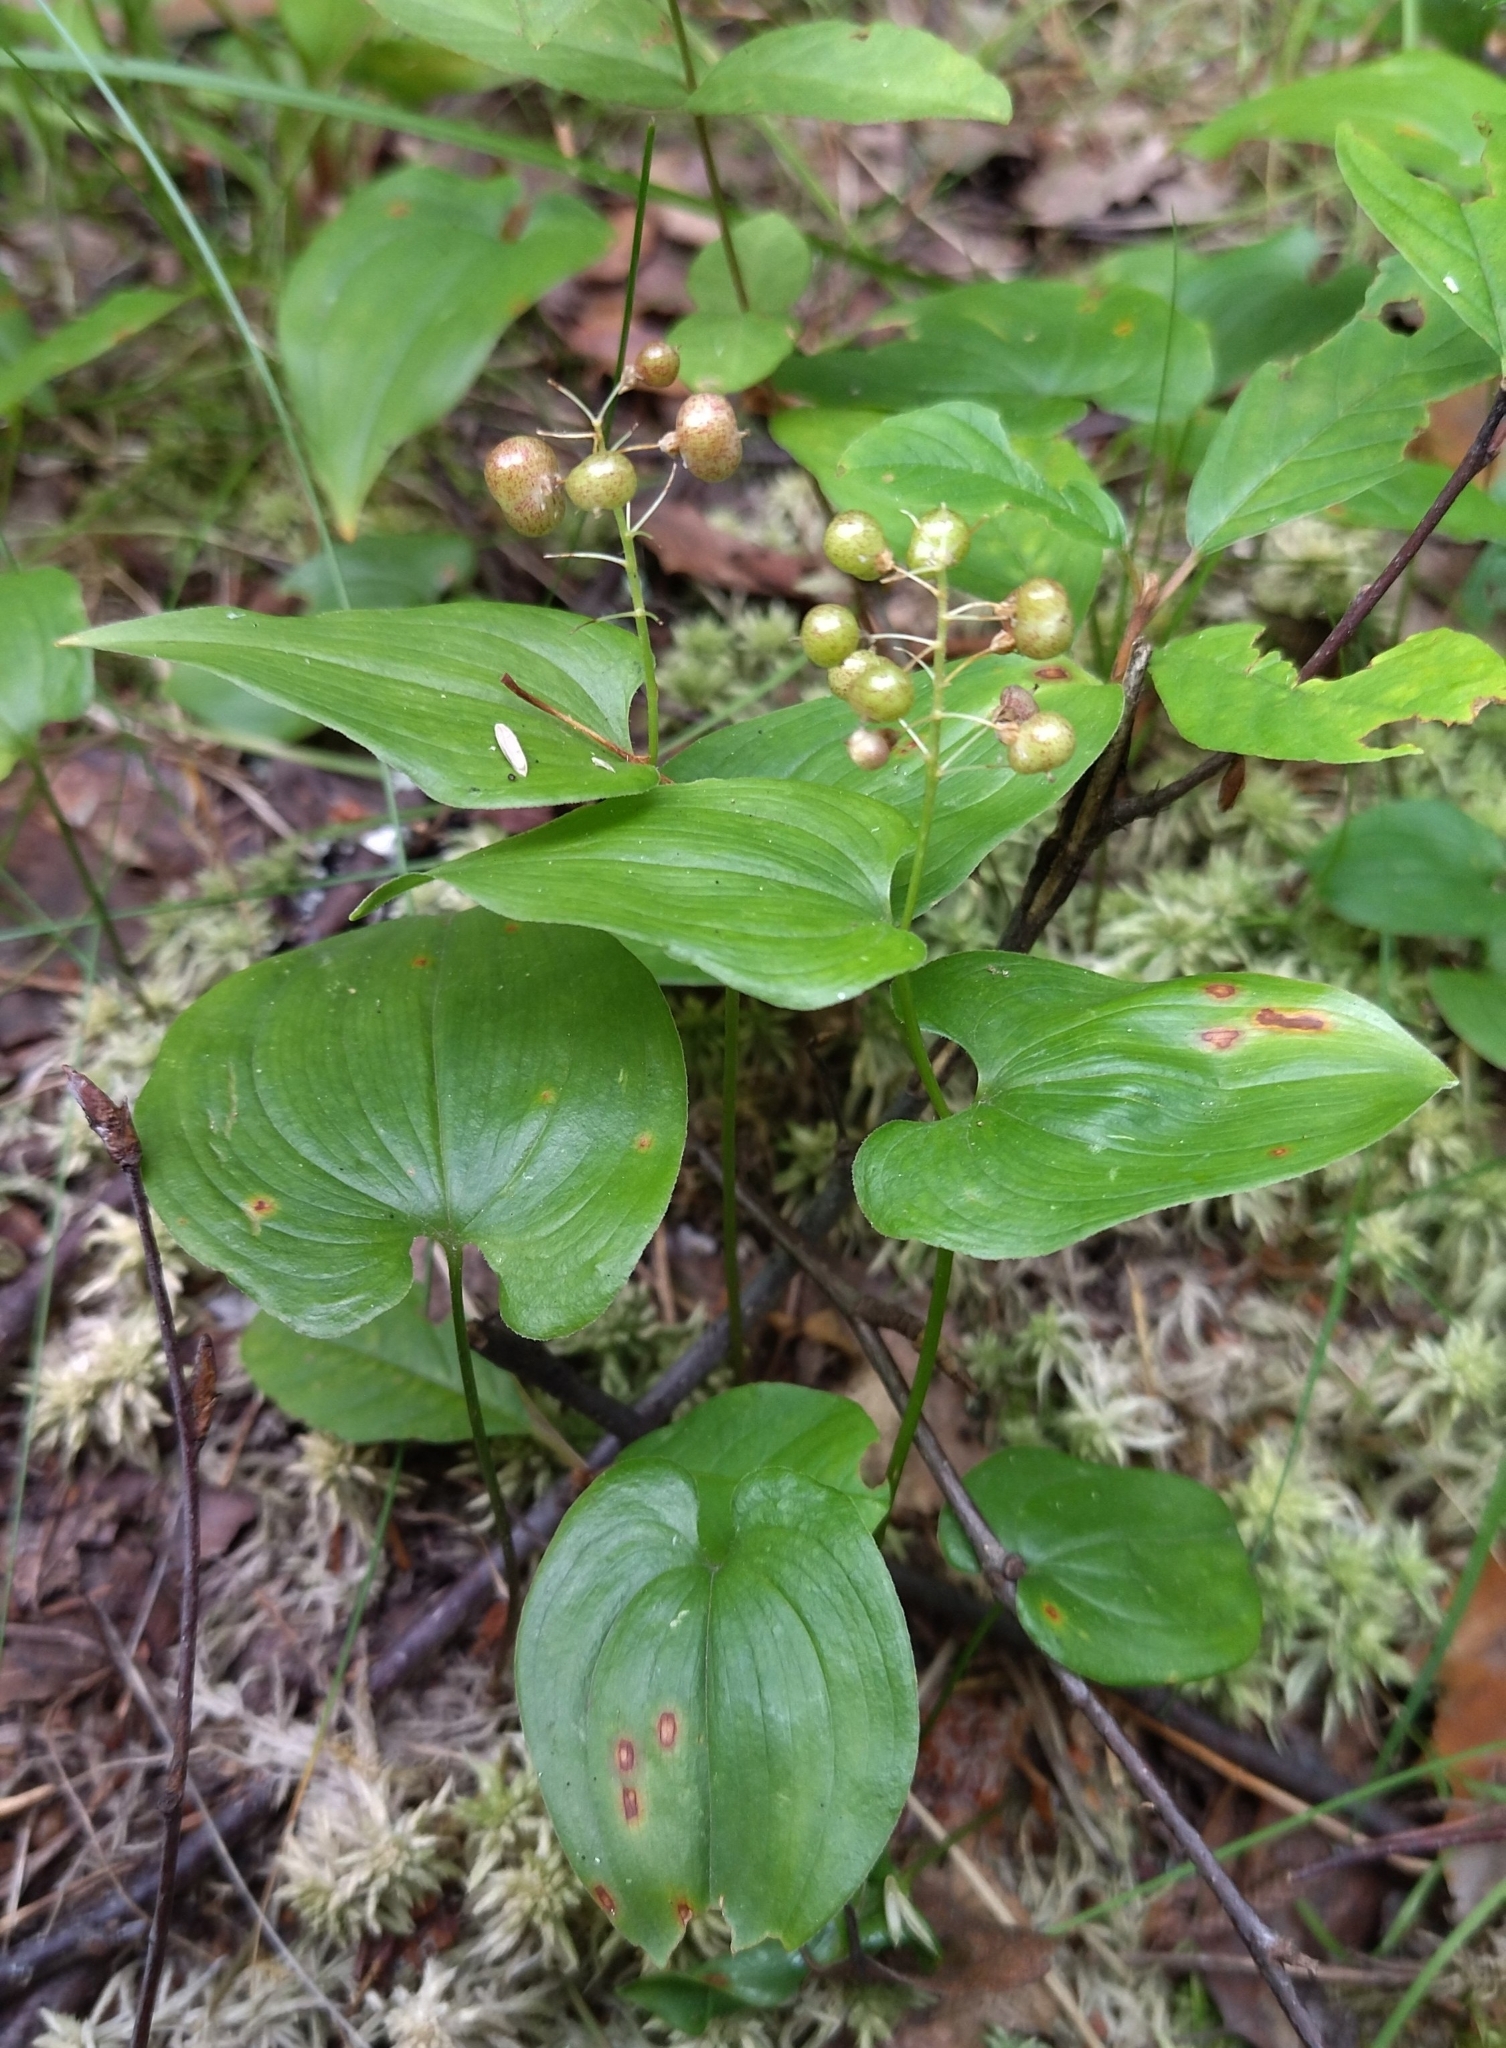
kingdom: Plantae
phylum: Tracheophyta
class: Liliopsida
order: Asparagales
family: Asparagaceae
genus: Maianthemum
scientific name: Maianthemum bifolium
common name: May lily
